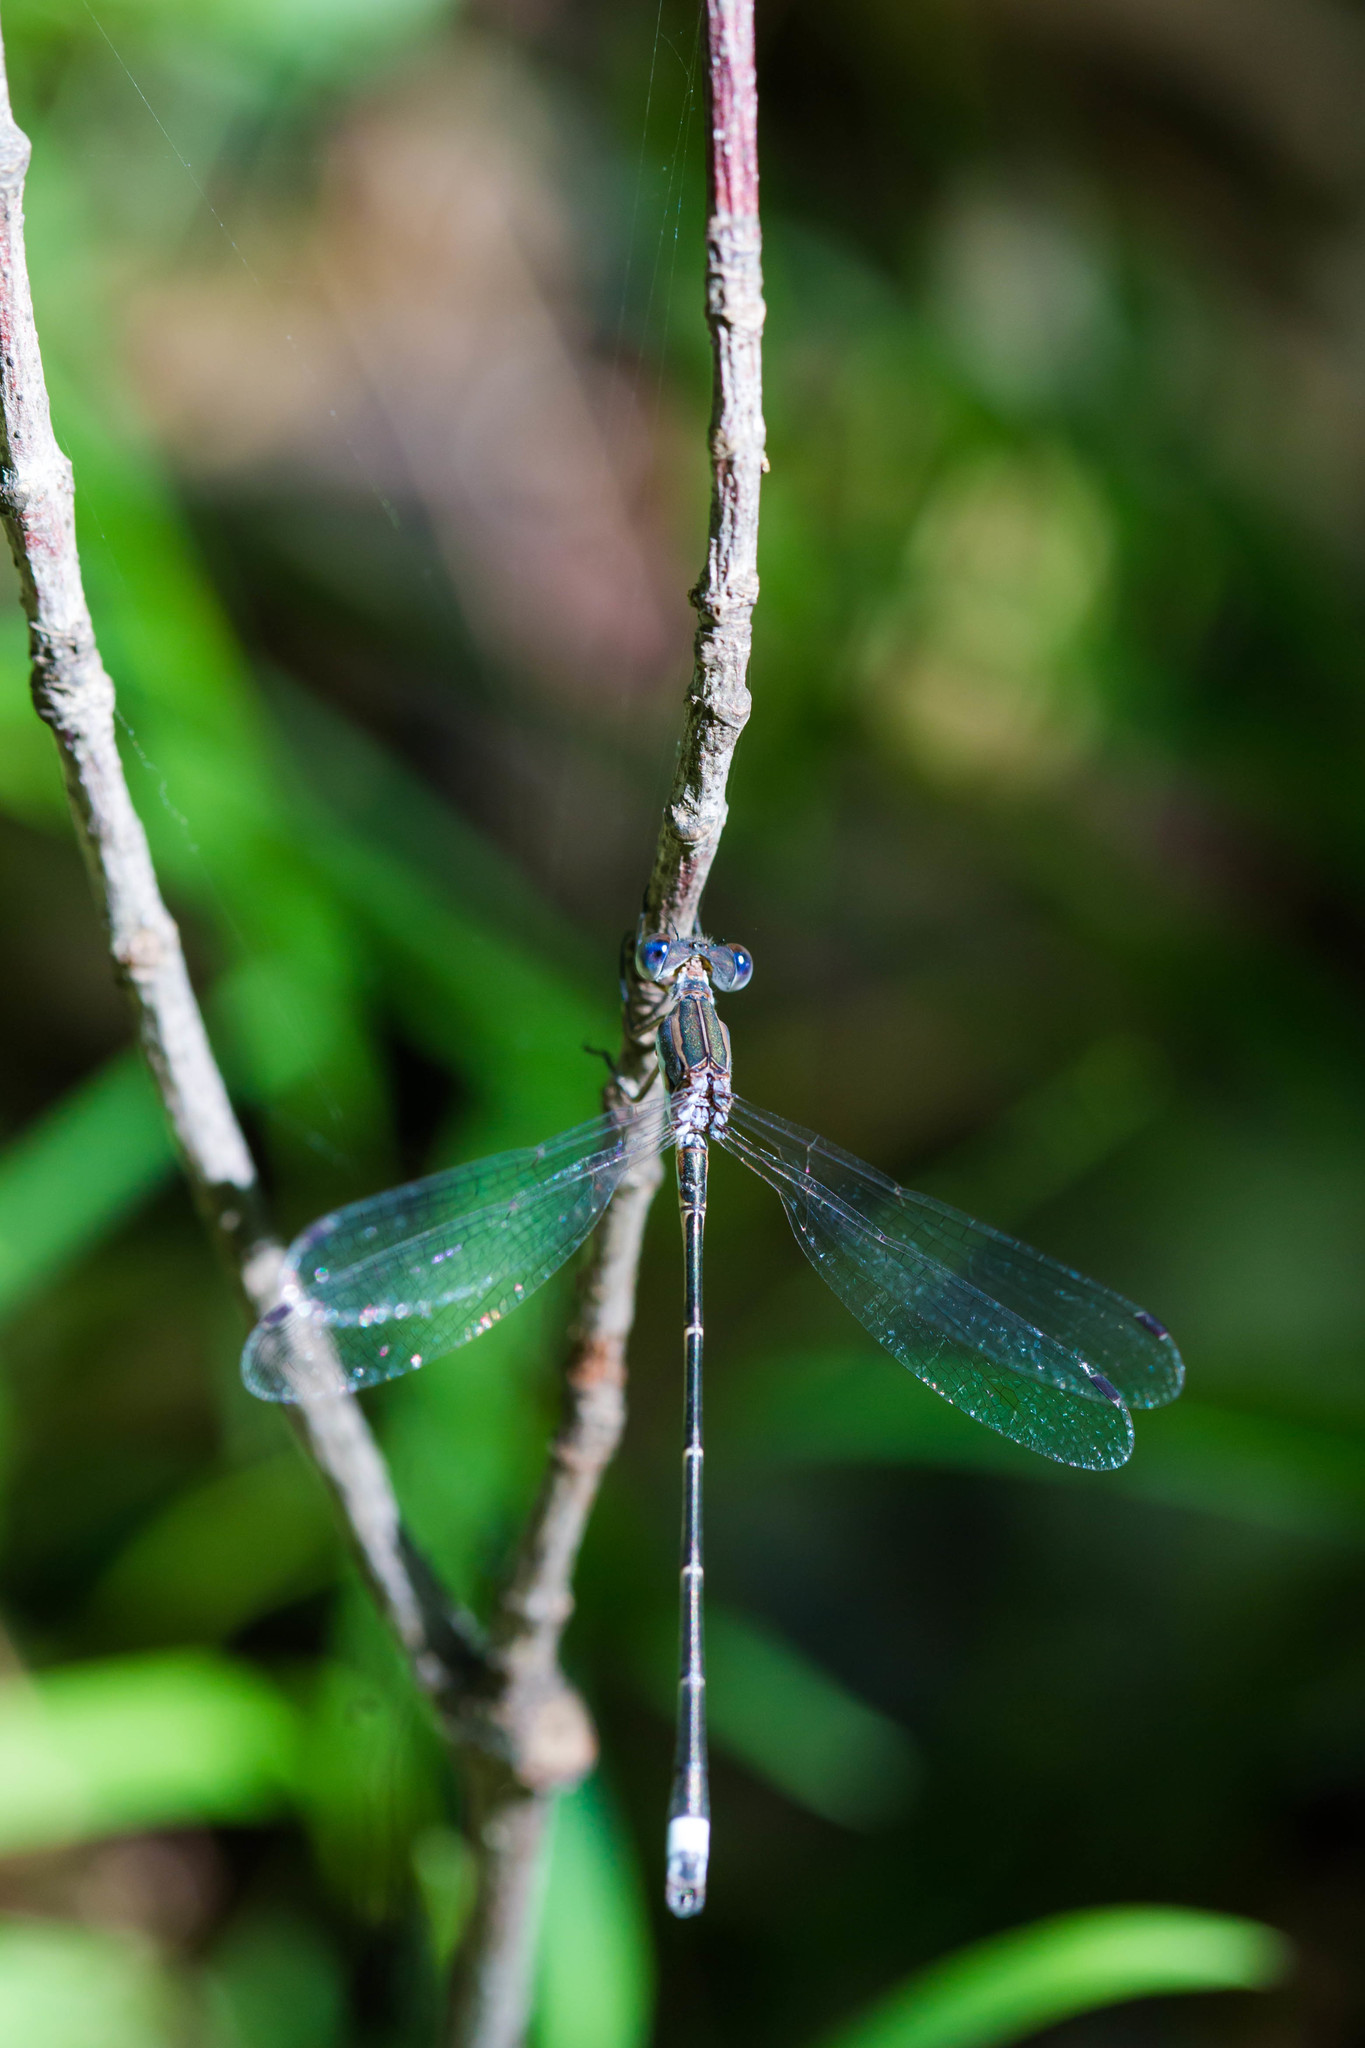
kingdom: Animalia
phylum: Arthropoda
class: Insecta
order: Odonata
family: Lestidae
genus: Lestes
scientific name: Lestes australis
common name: Southern spreadwing
